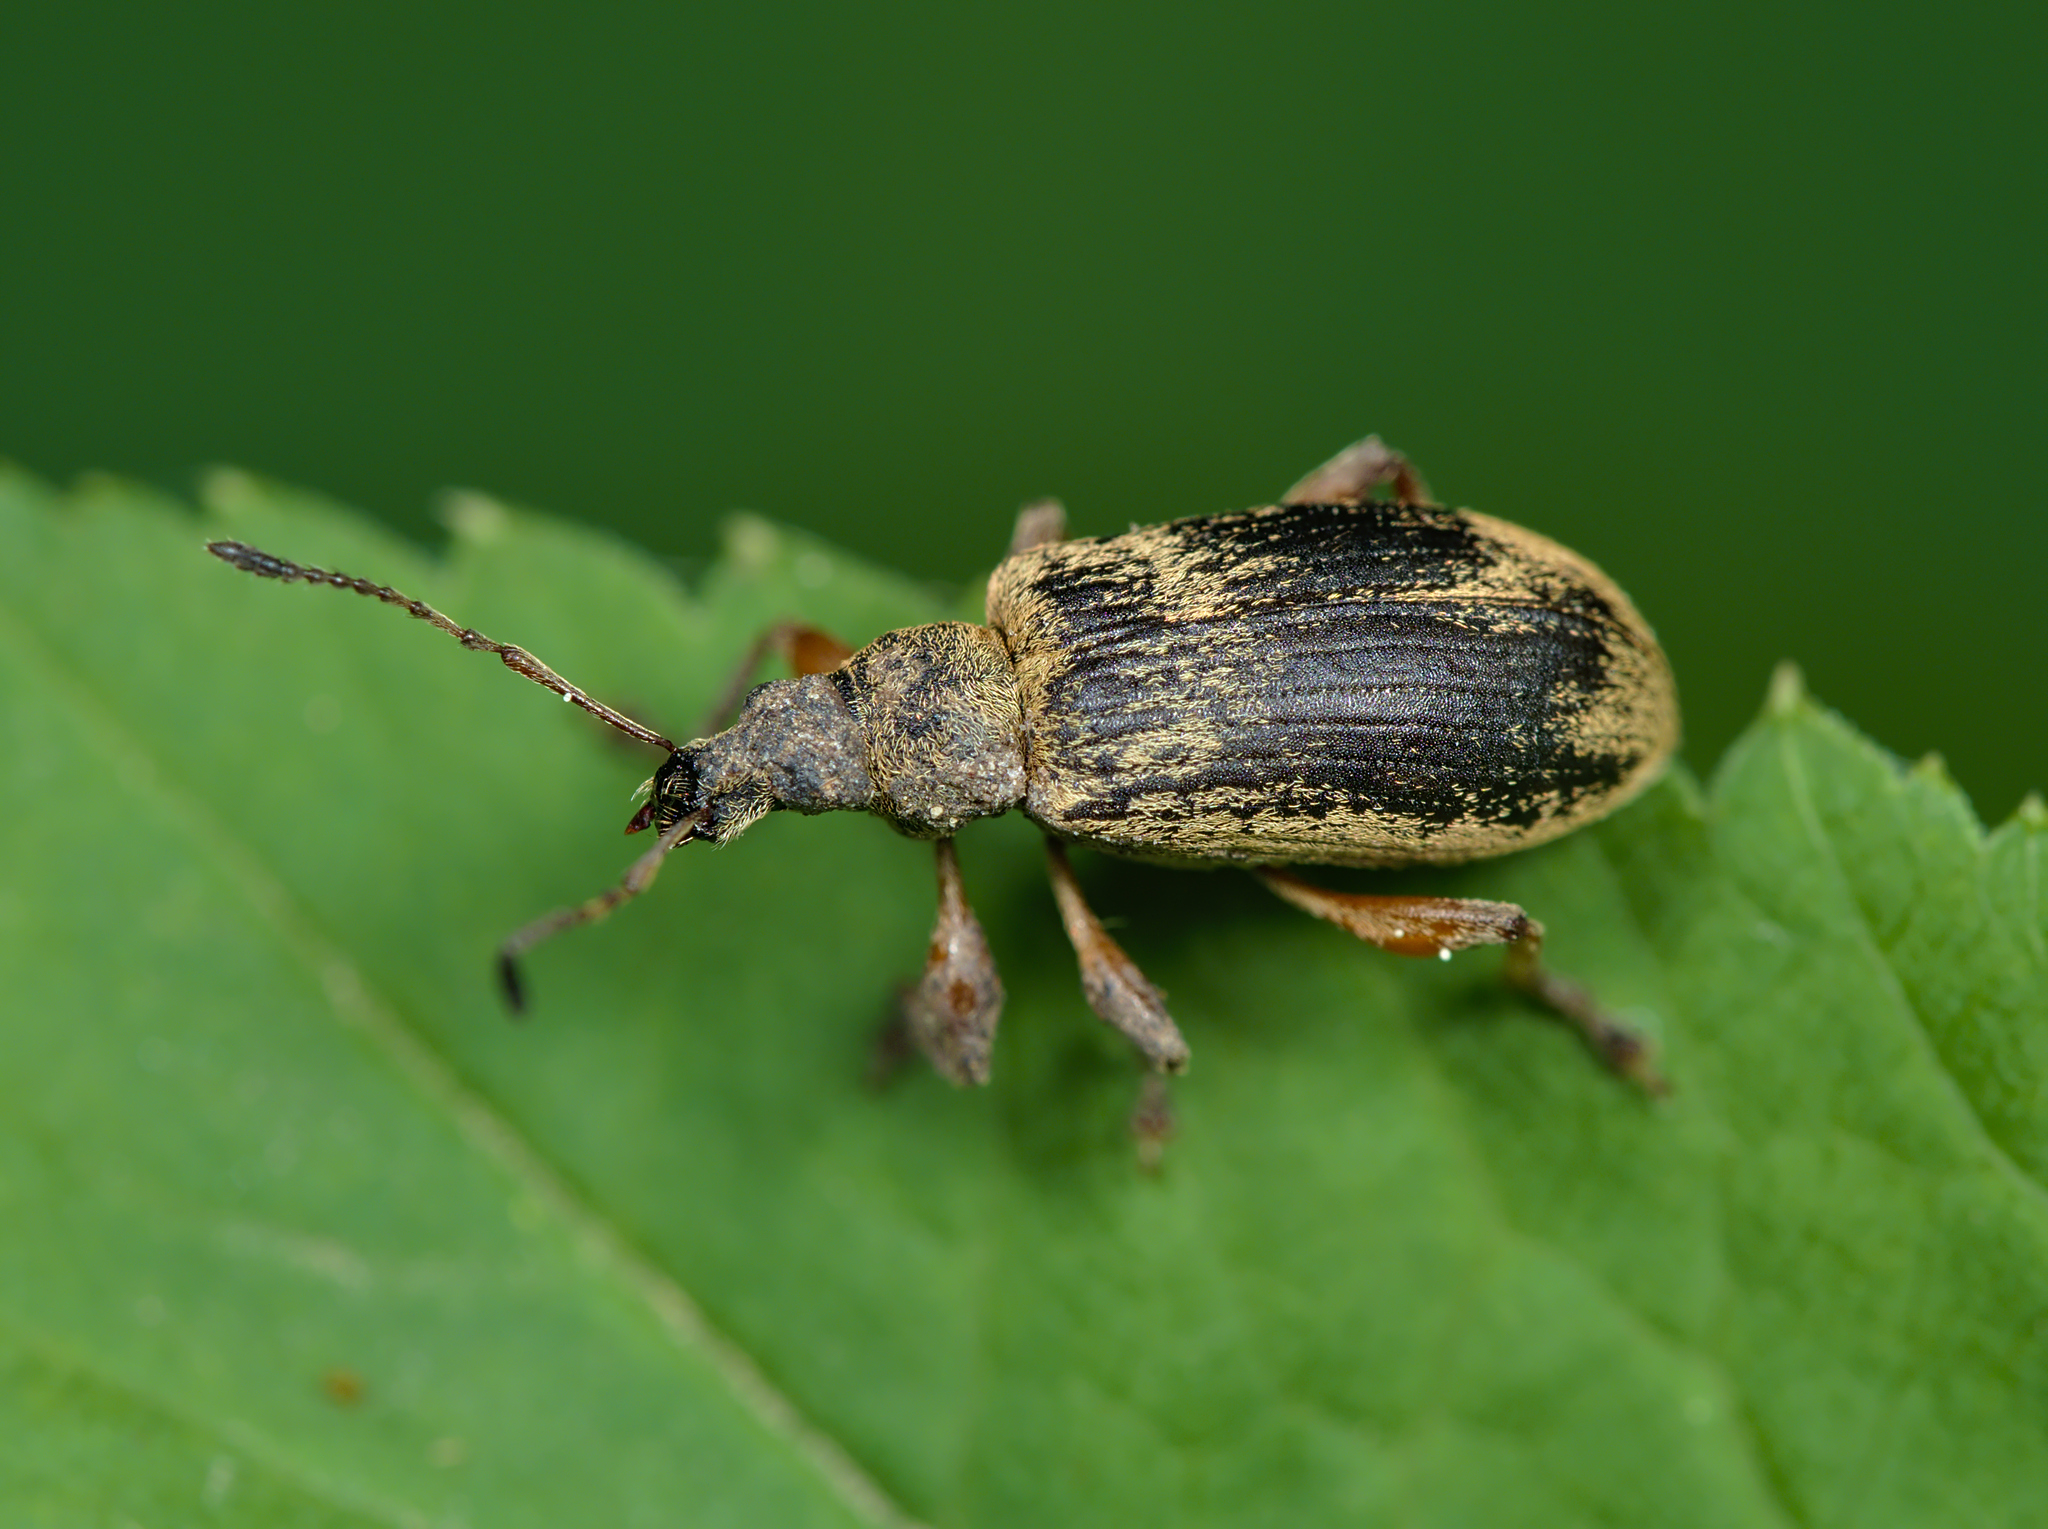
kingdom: Animalia
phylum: Arthropoda
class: Insecta
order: Coleoptera
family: Curculionidae
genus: Phyllobius
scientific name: Phyllobius glaucus
